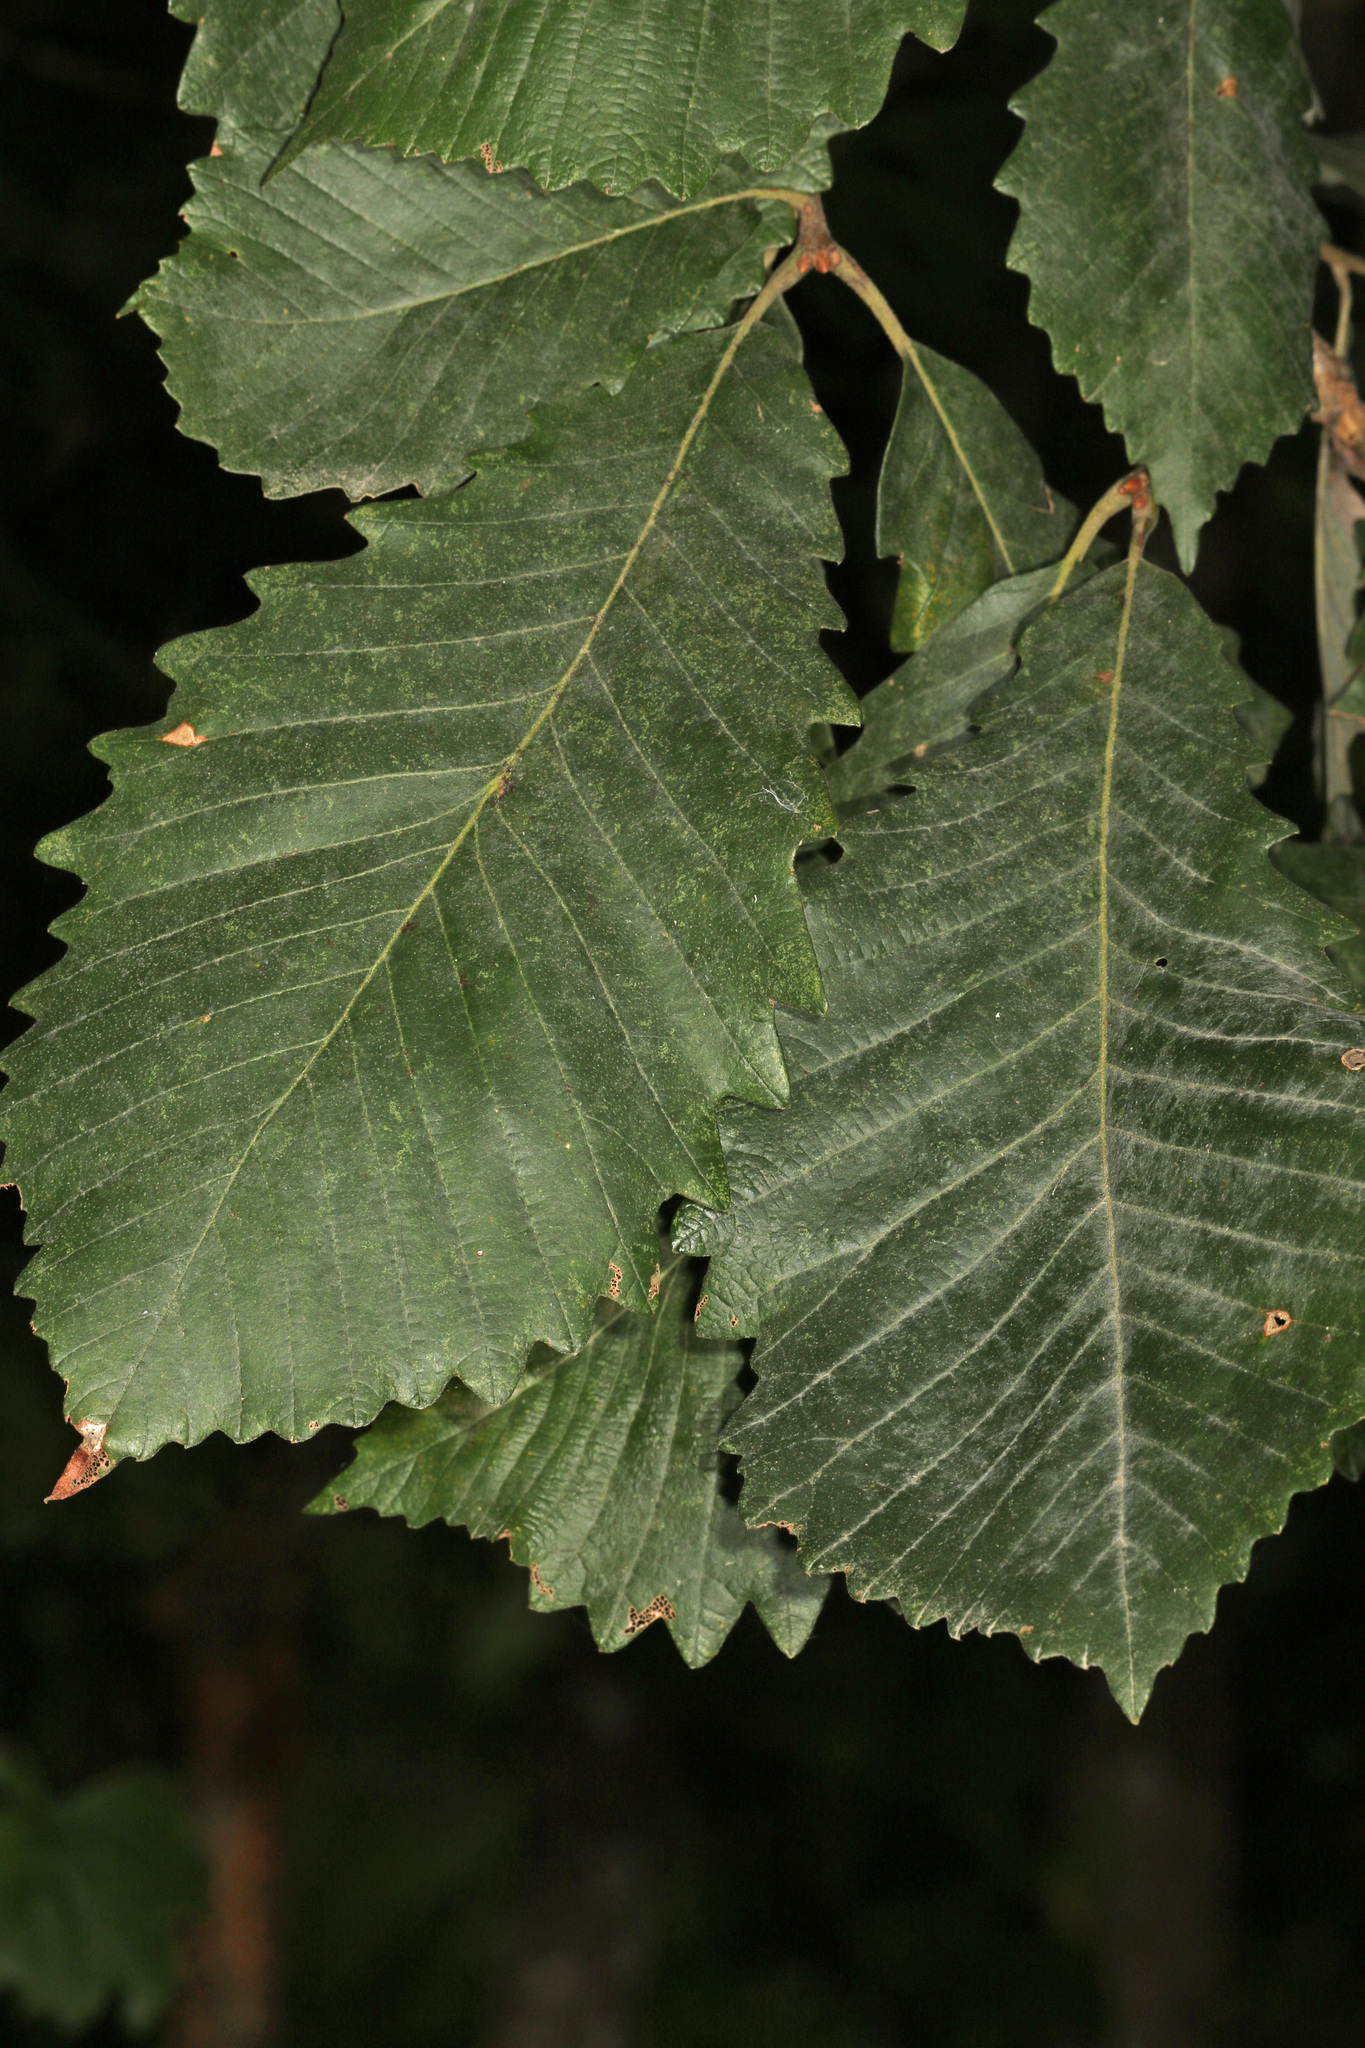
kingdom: Plantae
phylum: Tracheophyta
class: Magnoliopsida
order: Fagales
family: Fagaceae
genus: Quercus
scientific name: Quercus michauxii
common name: Swamp chestnut oak
